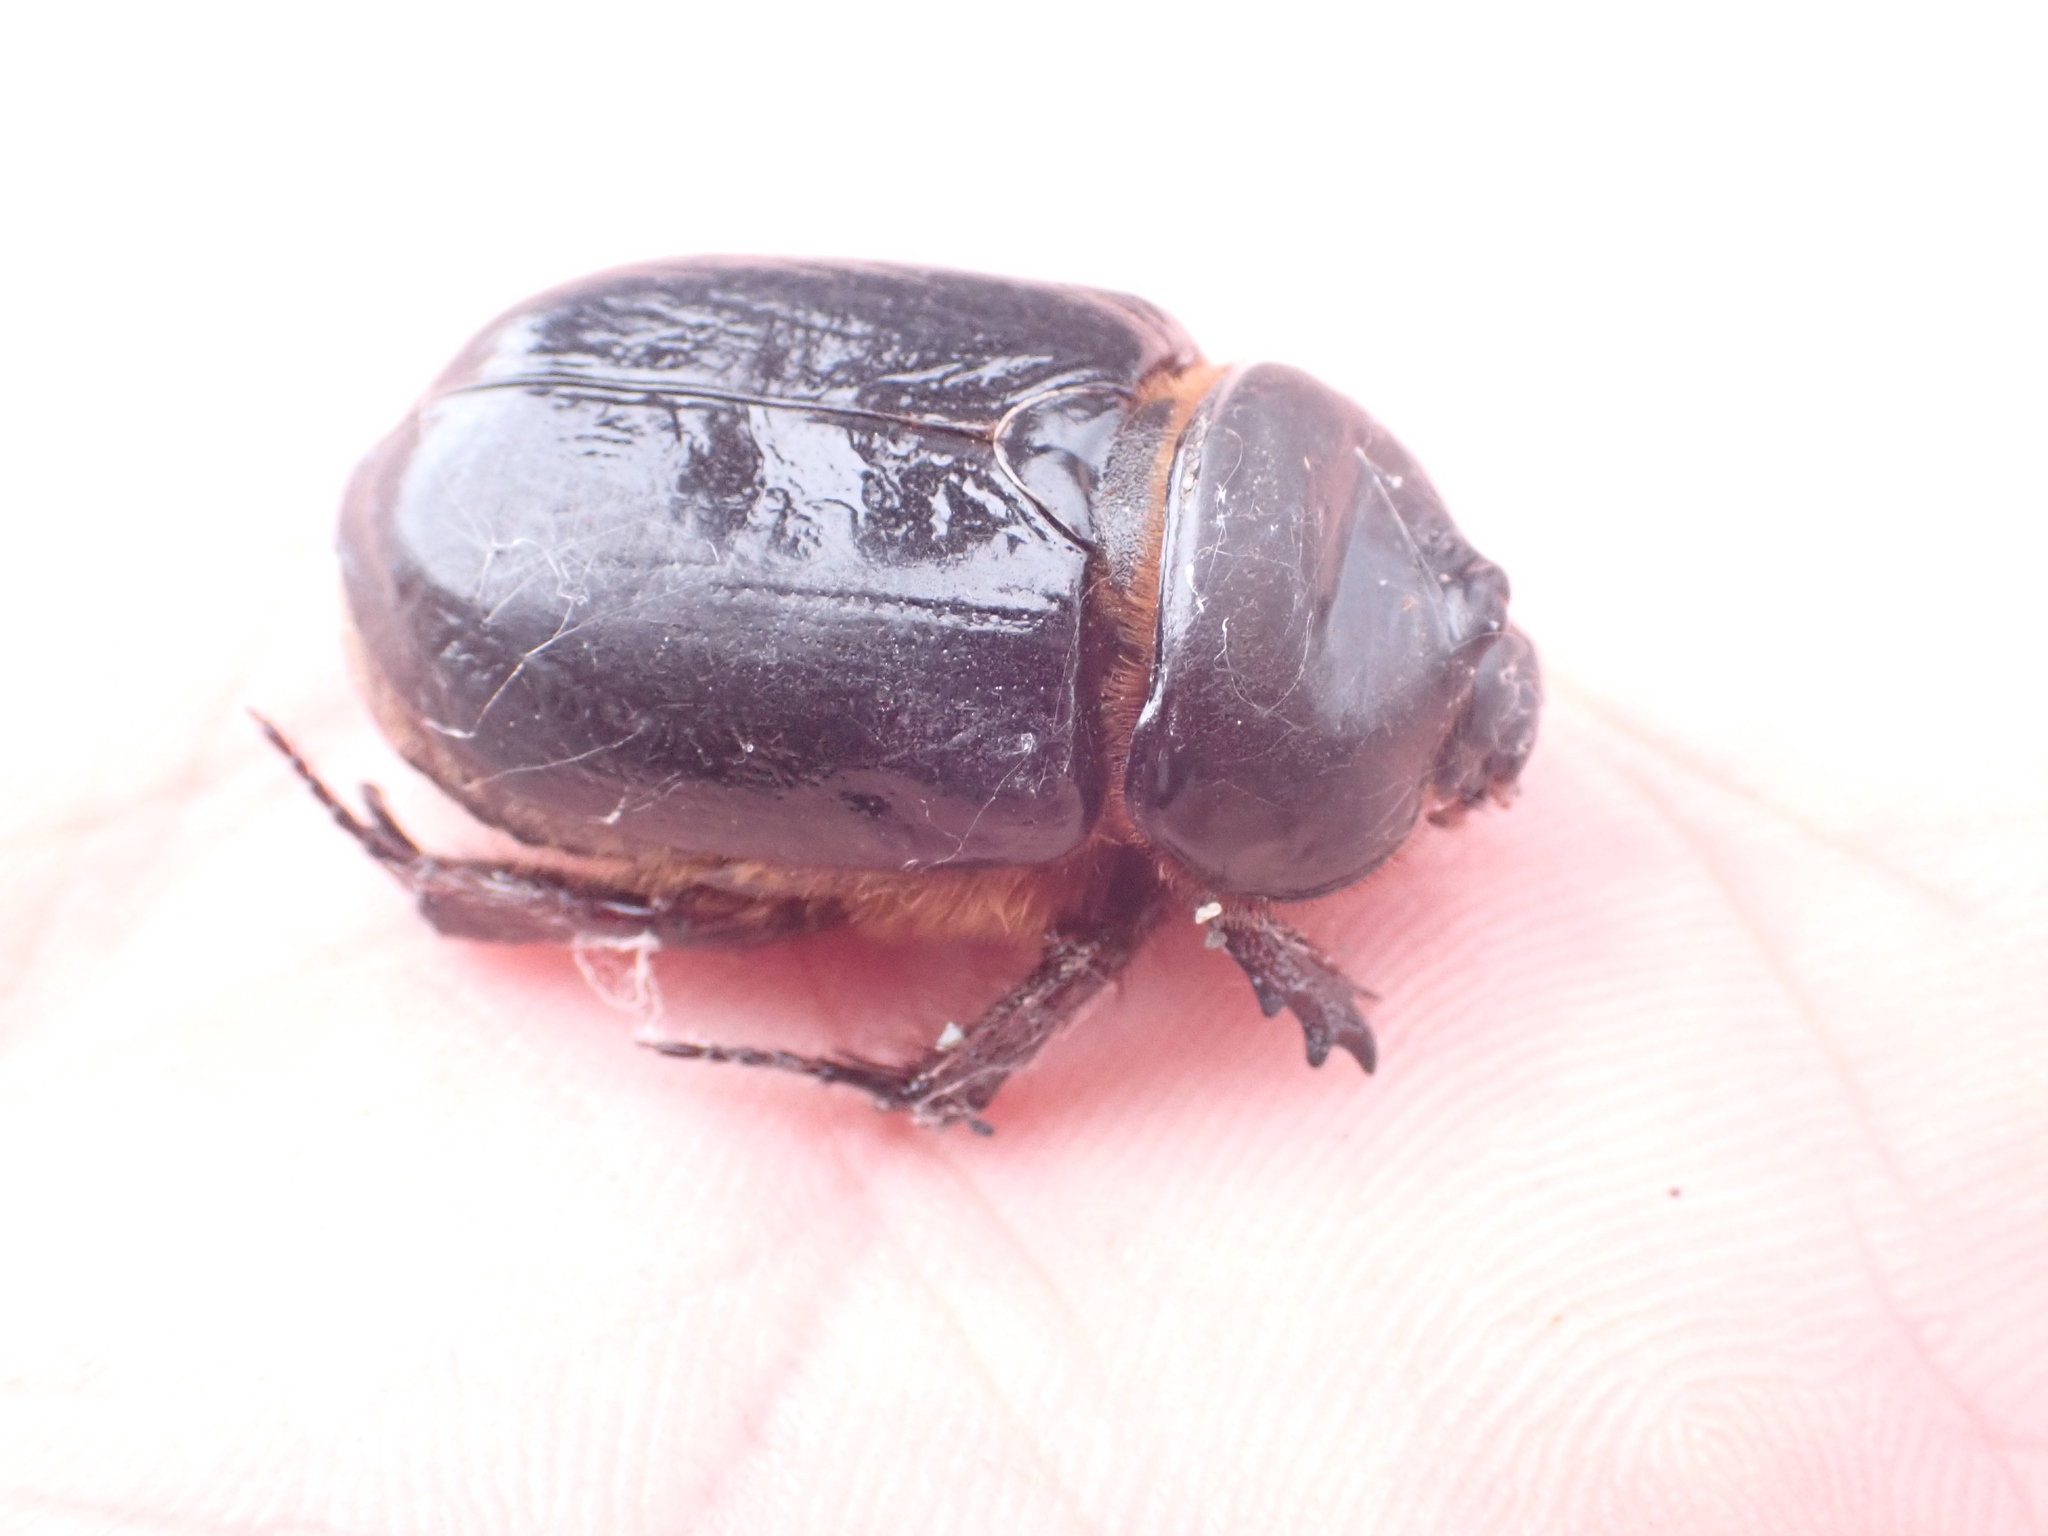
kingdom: Animalia
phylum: Arthropoda
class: Insecta
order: Coleoptera
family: Scarabaeidae
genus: Pericoptus
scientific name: Pericoptus truncatus
